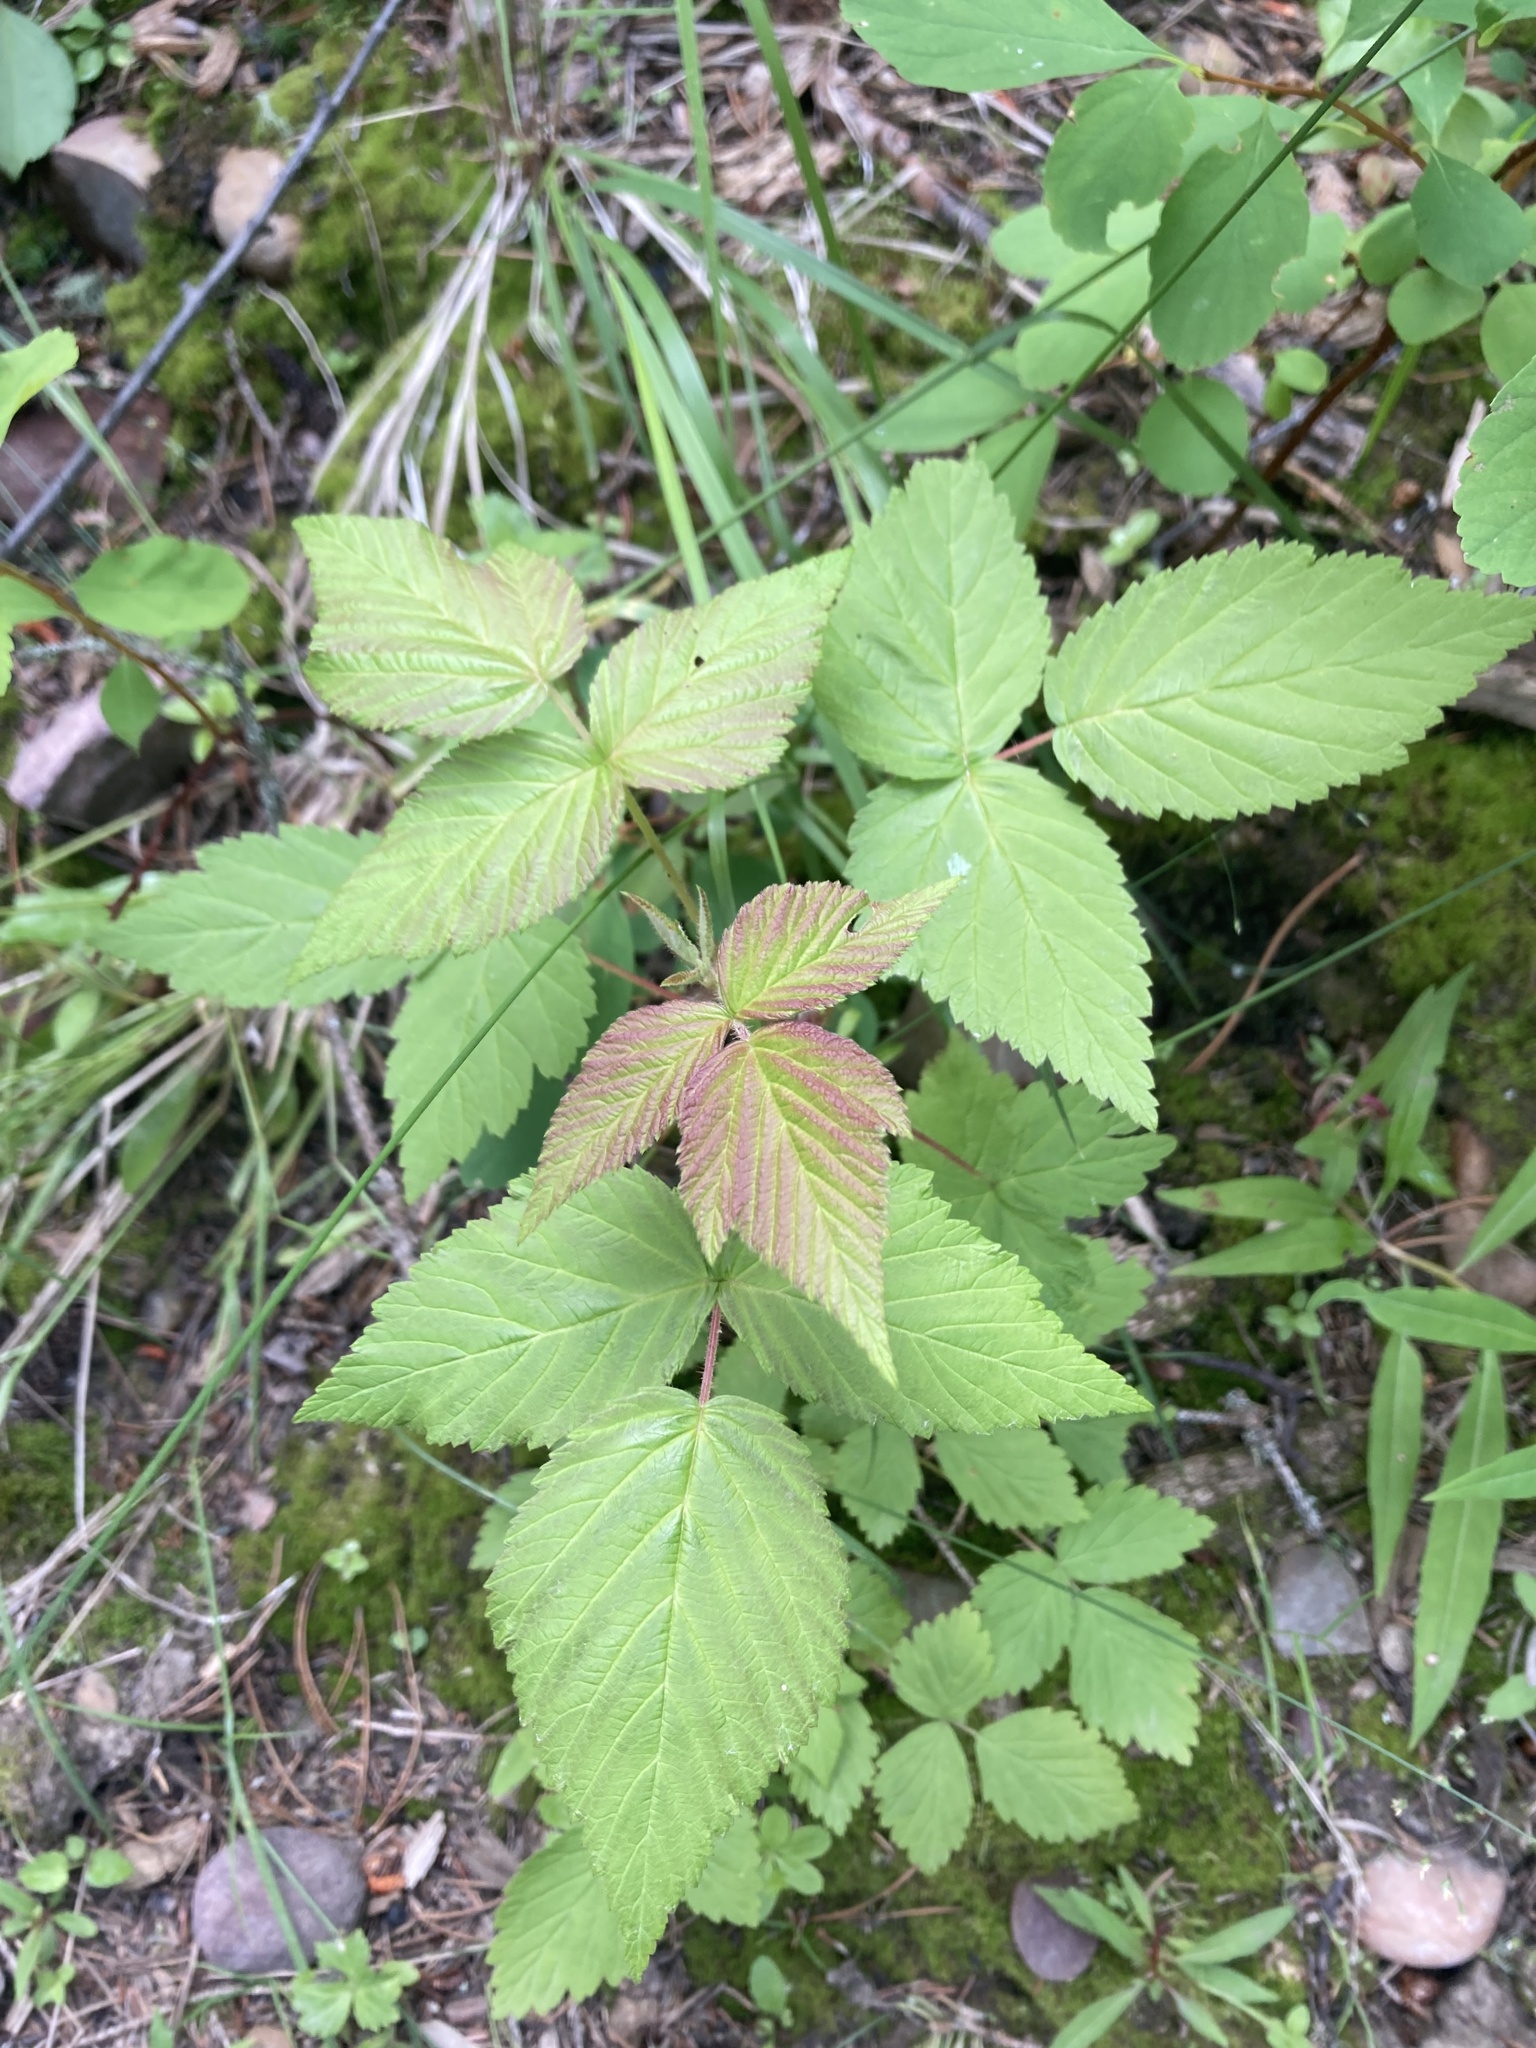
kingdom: Plantae
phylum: Tracheophyta
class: Magnoliopsida
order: Rosales
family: Rosaceae
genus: Rubus
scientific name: Rubus idaeus
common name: Raspberry
